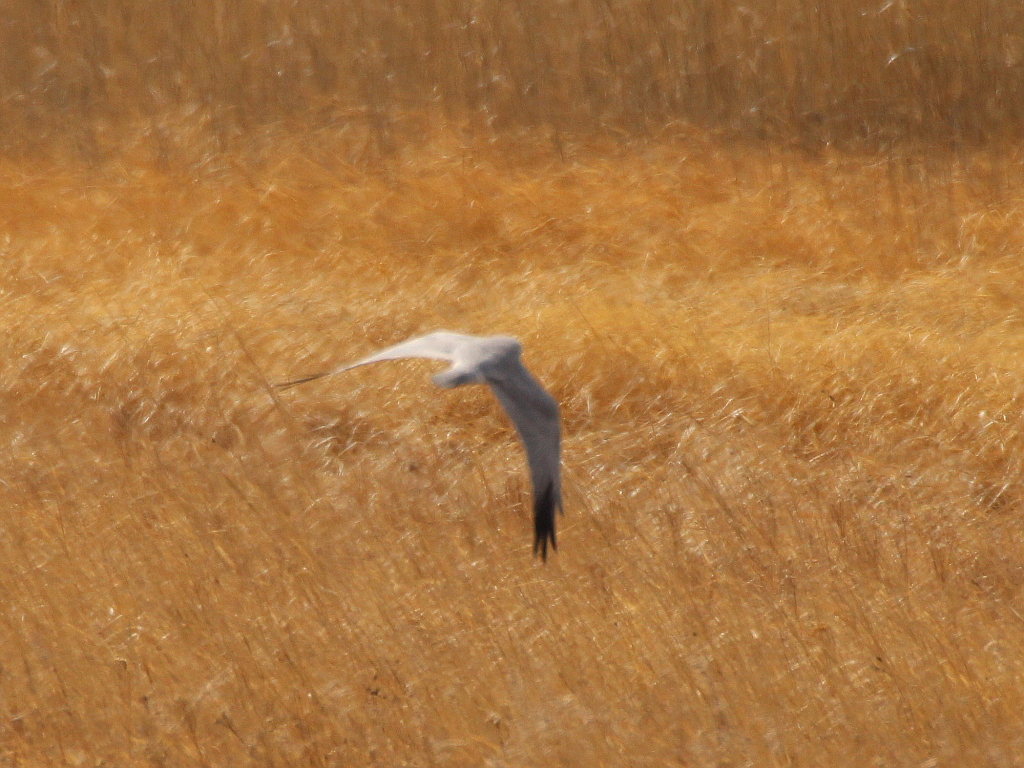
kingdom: Animalia
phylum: Chordata
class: Aves
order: Accipitriformes
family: Accipitridae
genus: Circus
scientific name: Circus macrourus
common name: Pallid harrier
